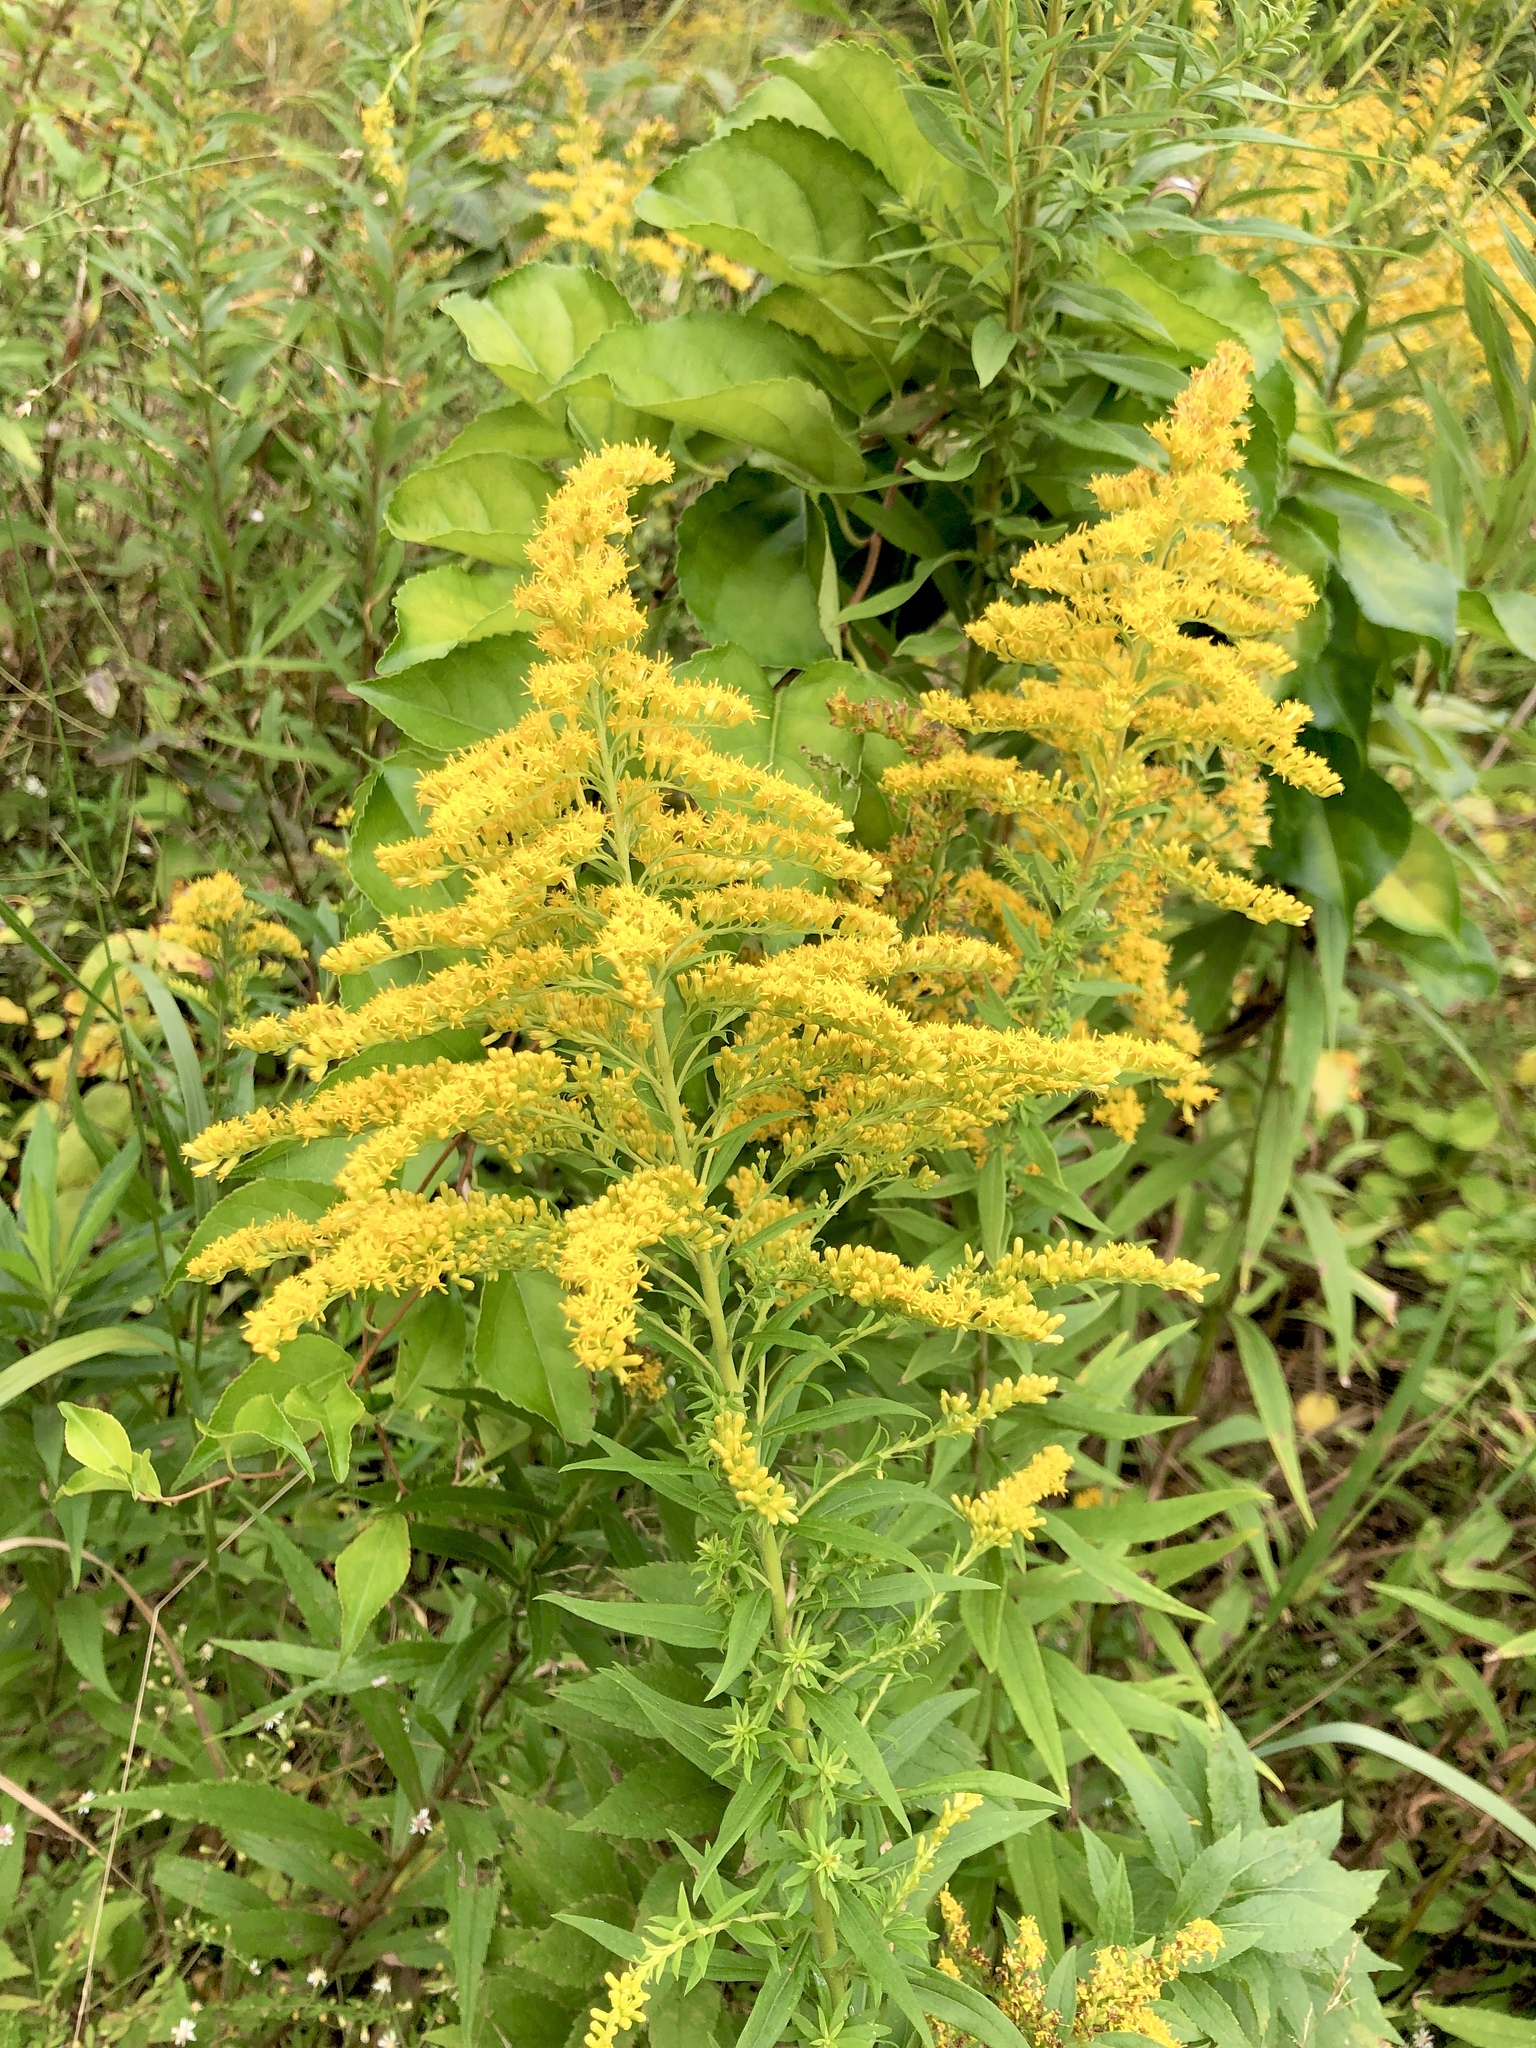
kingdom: Plantae
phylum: Tracheophyta
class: Magnoliopsida
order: Asterales
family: Asteraceae
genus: Solidago
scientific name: Solidago canadensis
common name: Canada goldenrod
